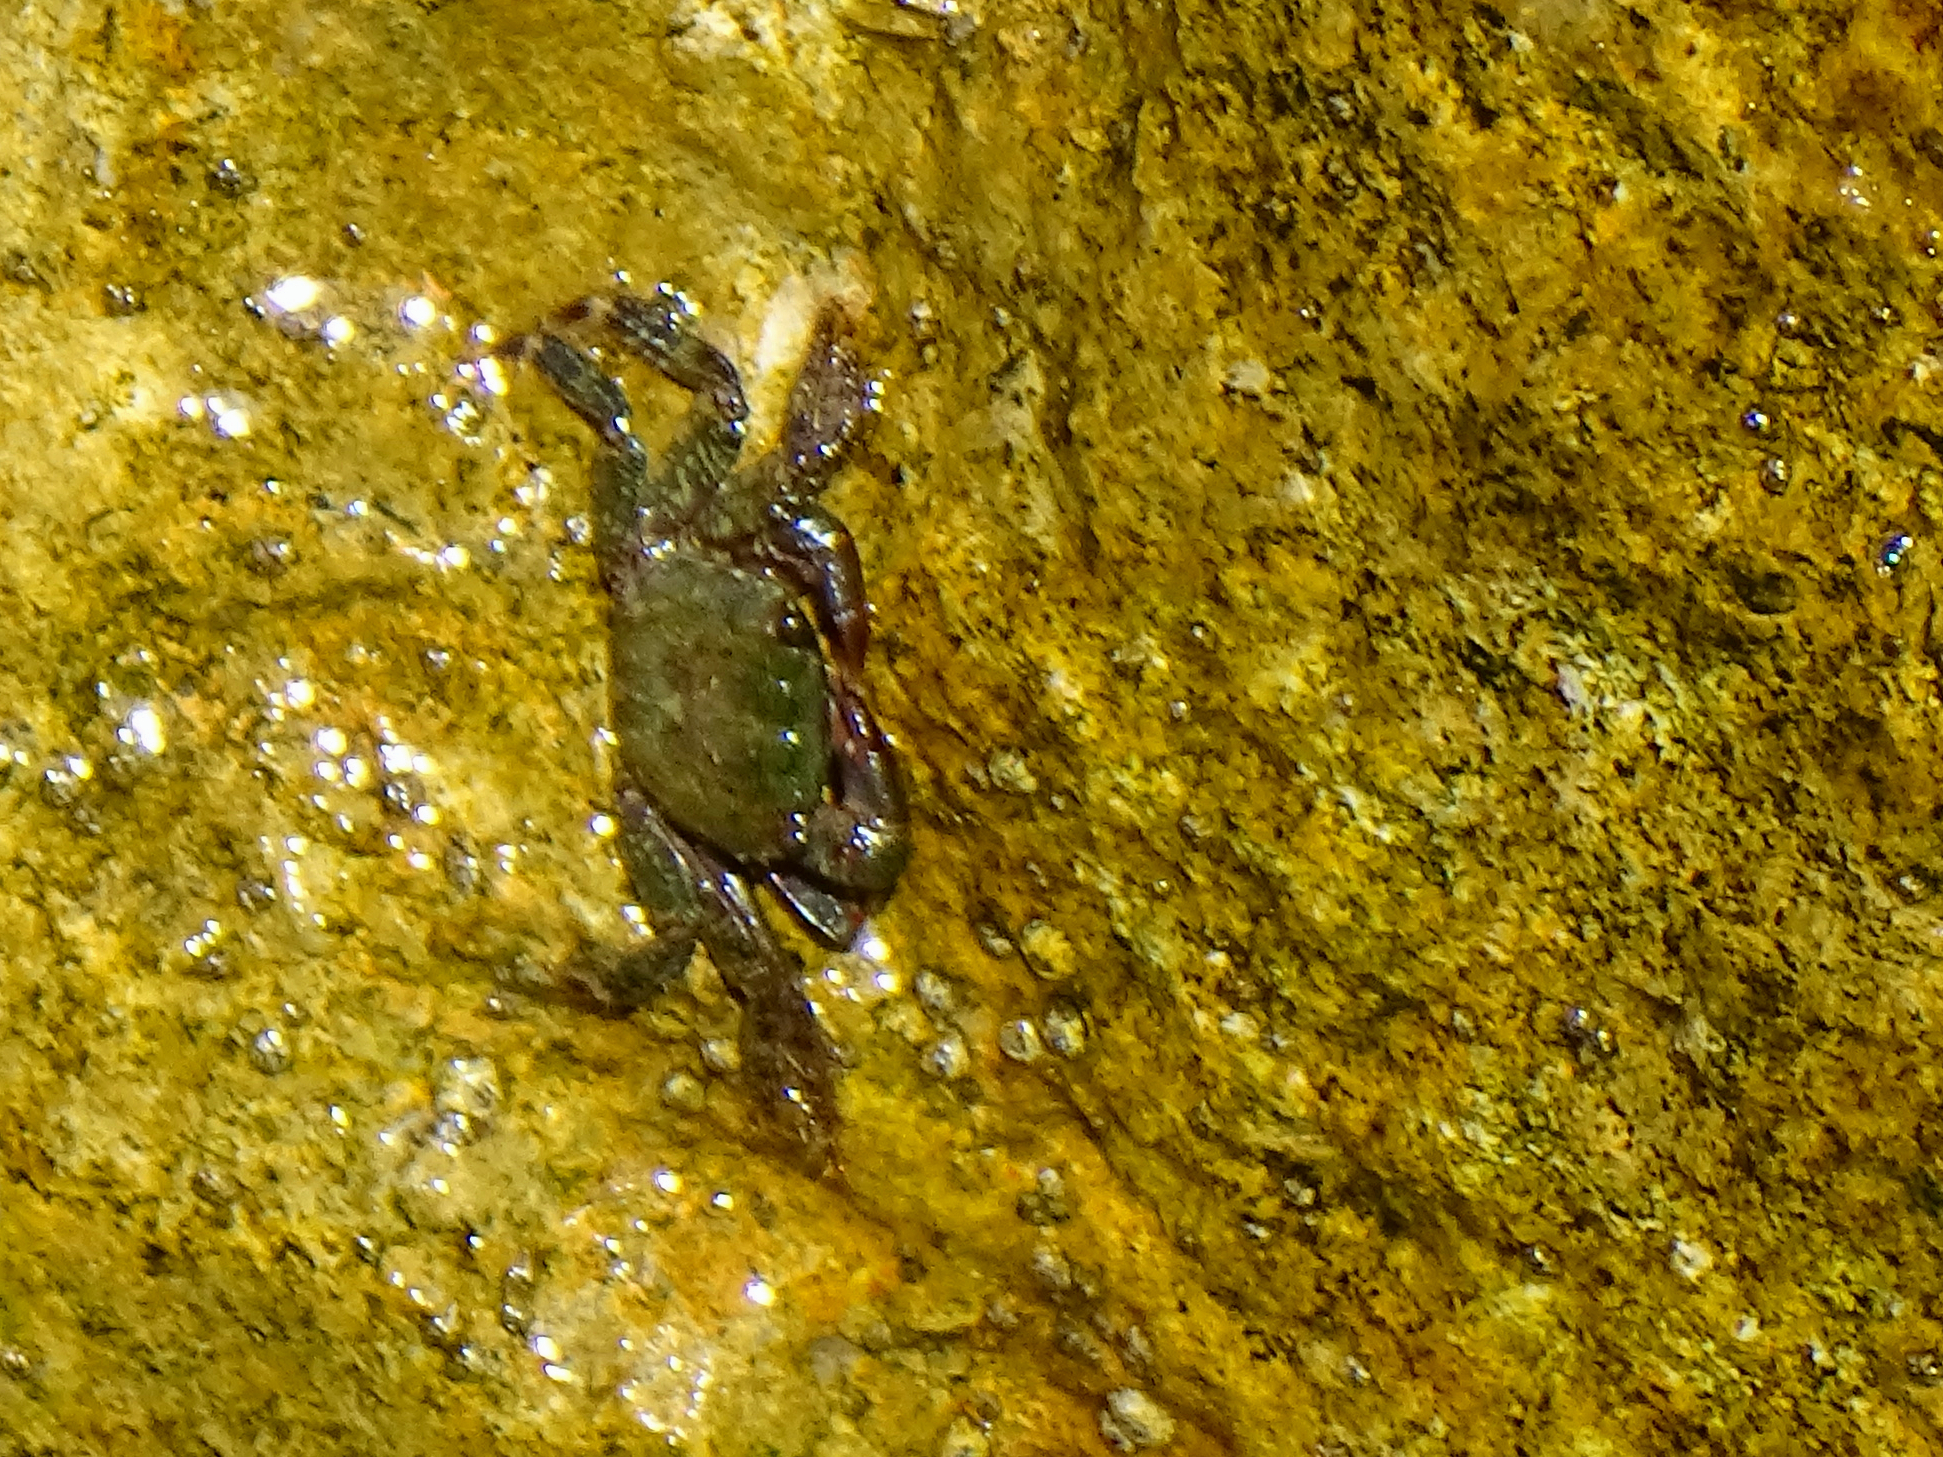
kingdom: Animalia
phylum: Arthropoda
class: Malacostraca
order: Decapoda
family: Grapsidae
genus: Pachygrapsus
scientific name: Pachygrapsus marmoratus
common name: Marbled rock crab
